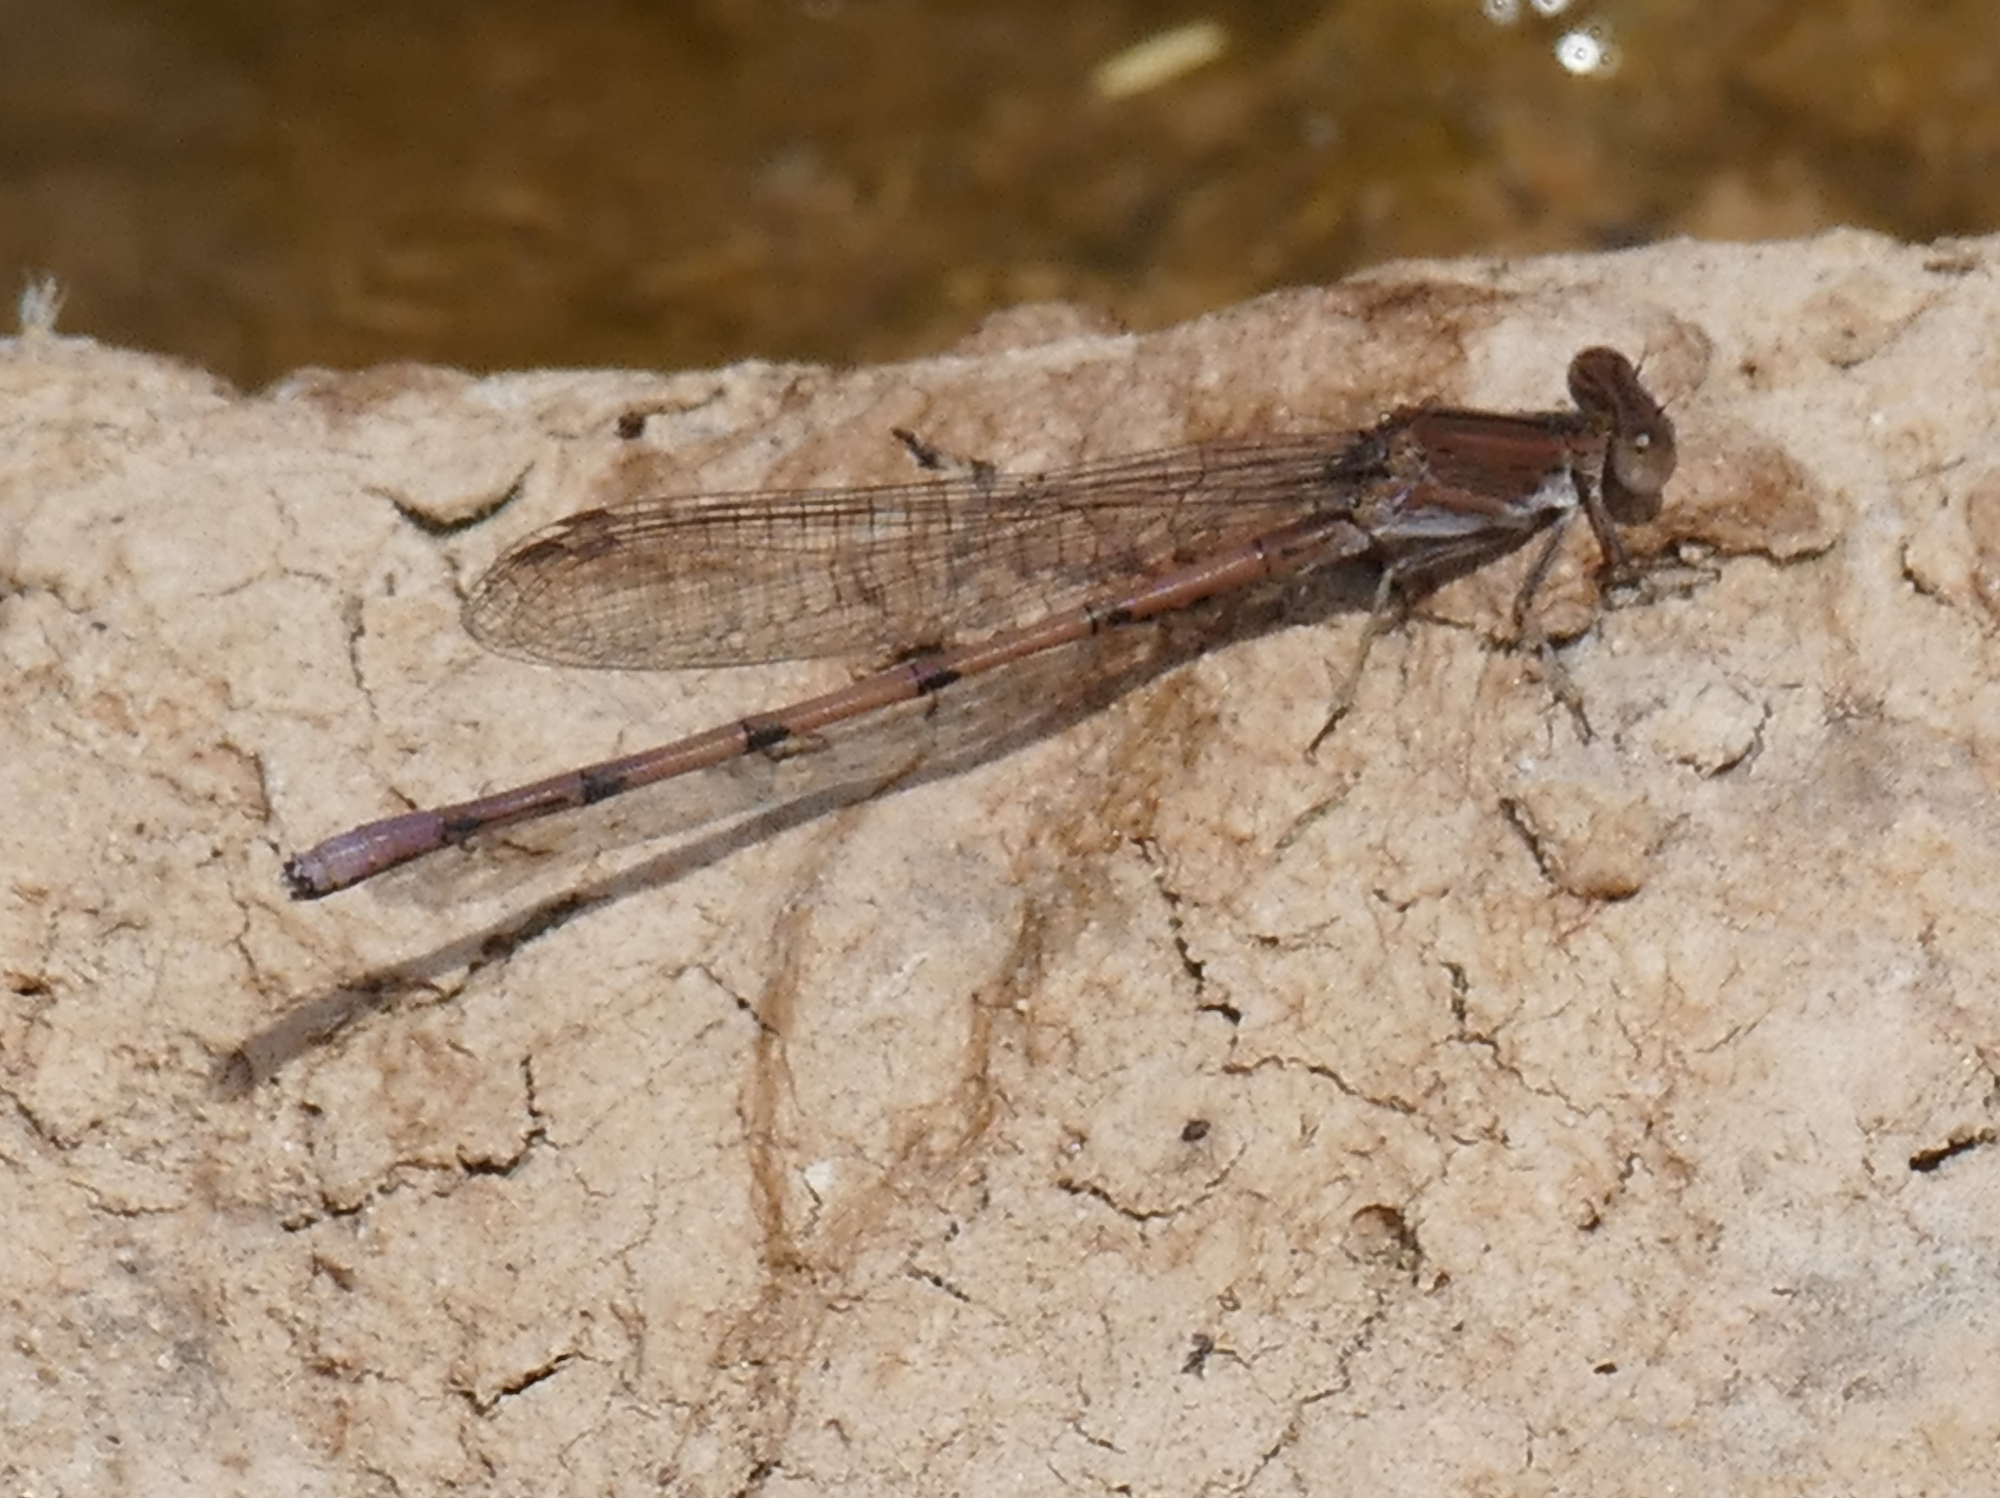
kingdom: Animalia
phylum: Arthropoda
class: Insecta
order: Odonata
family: Coenagrionidae
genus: Argia
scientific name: Argia pallens
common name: Amethyst dancer
